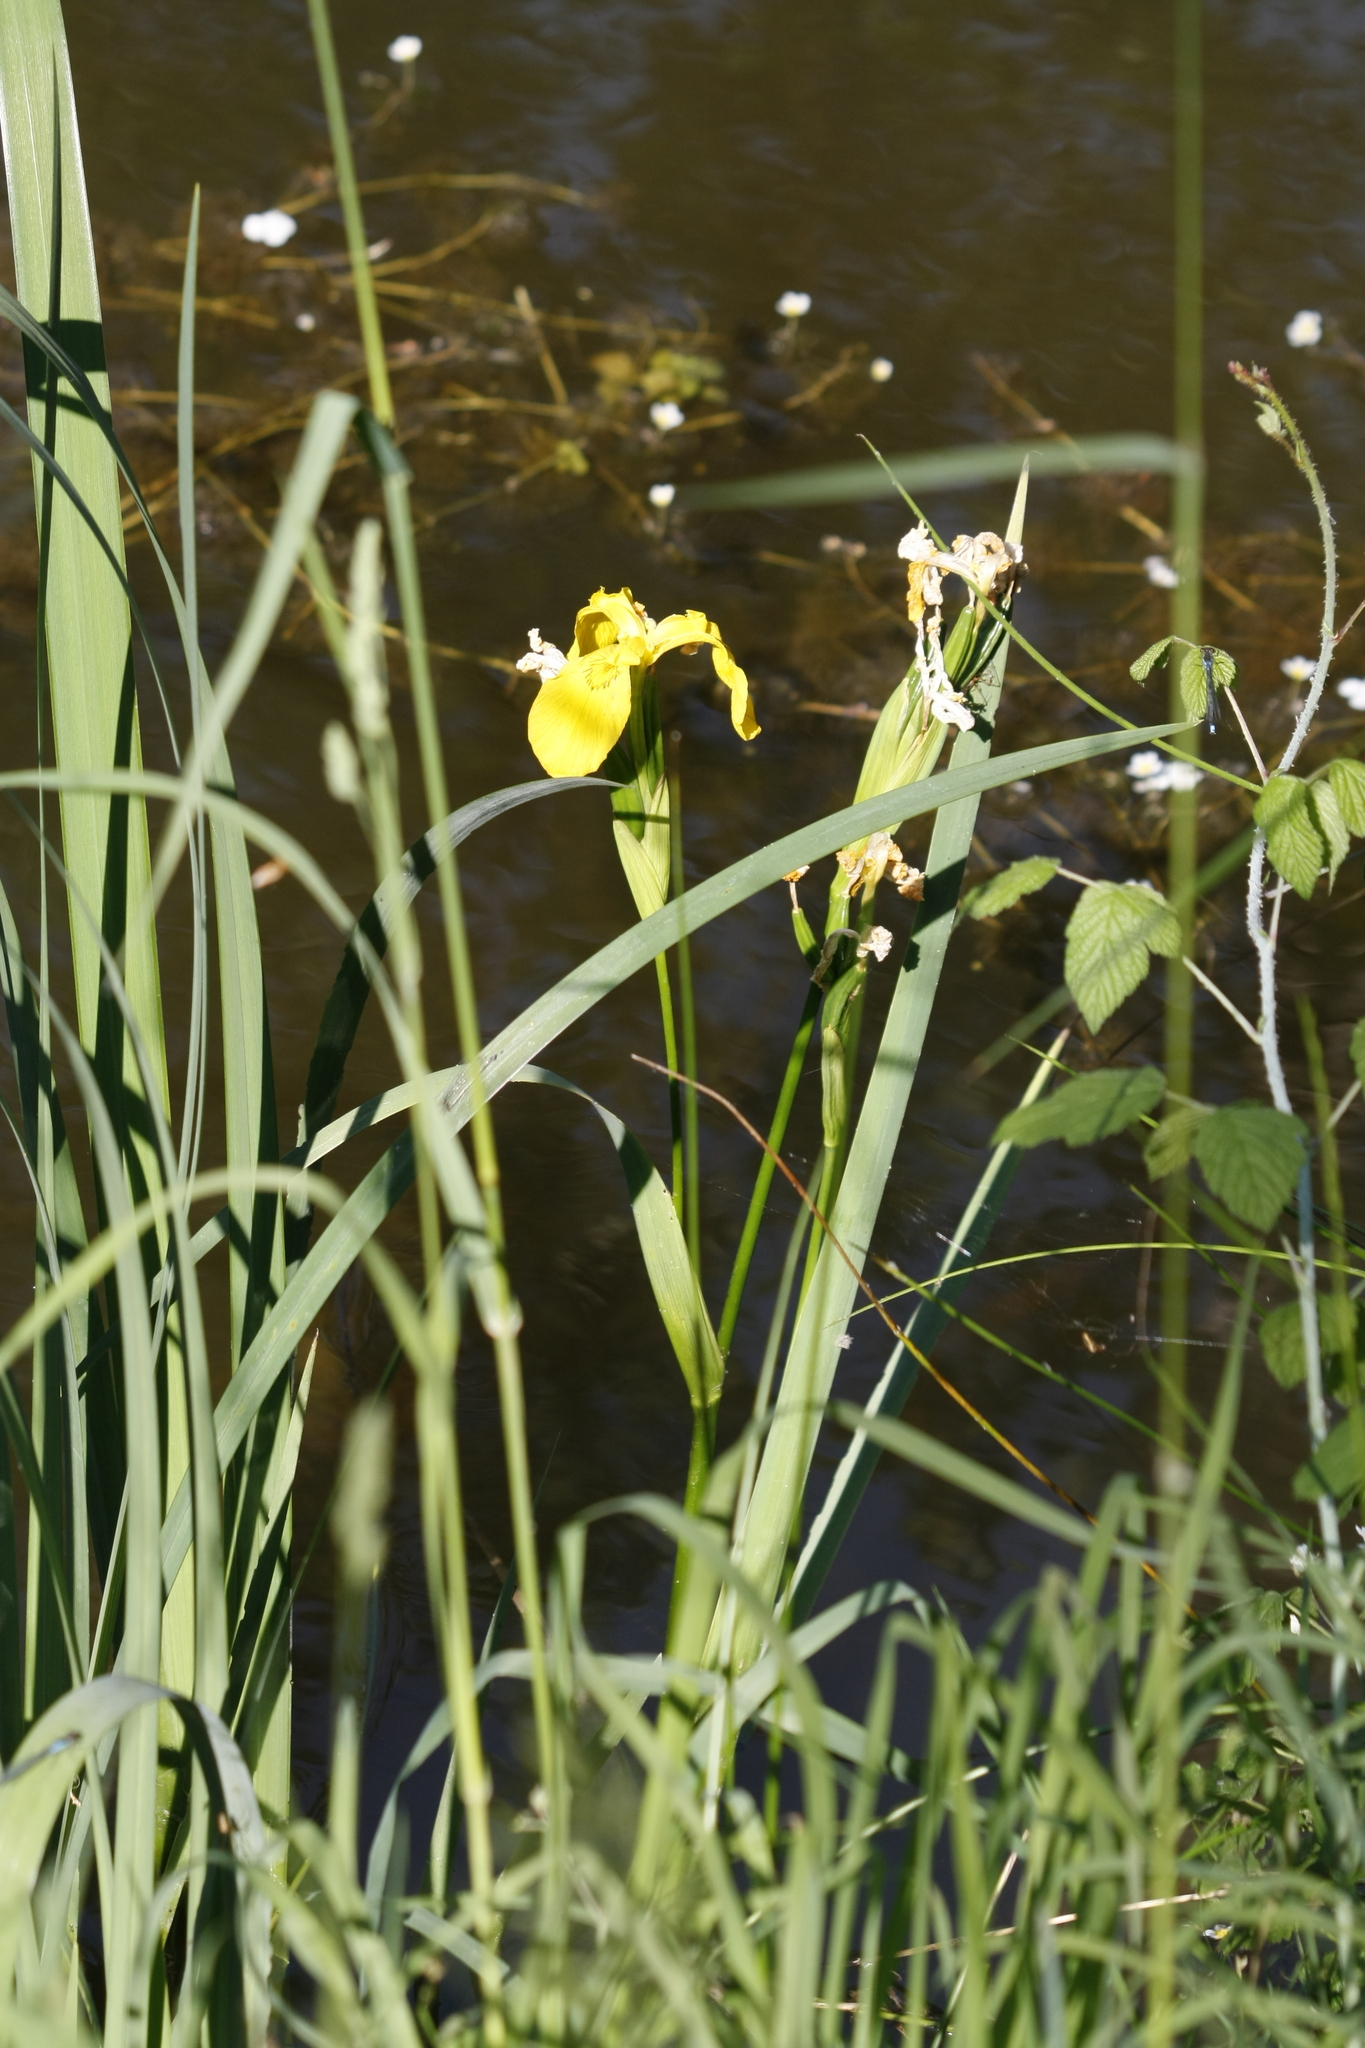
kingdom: Plantae
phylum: Tracheophyta
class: Liliopsida
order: Asparagales
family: Iridaceae
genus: Iris
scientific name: Iris pseudacorus
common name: Yellow flag
